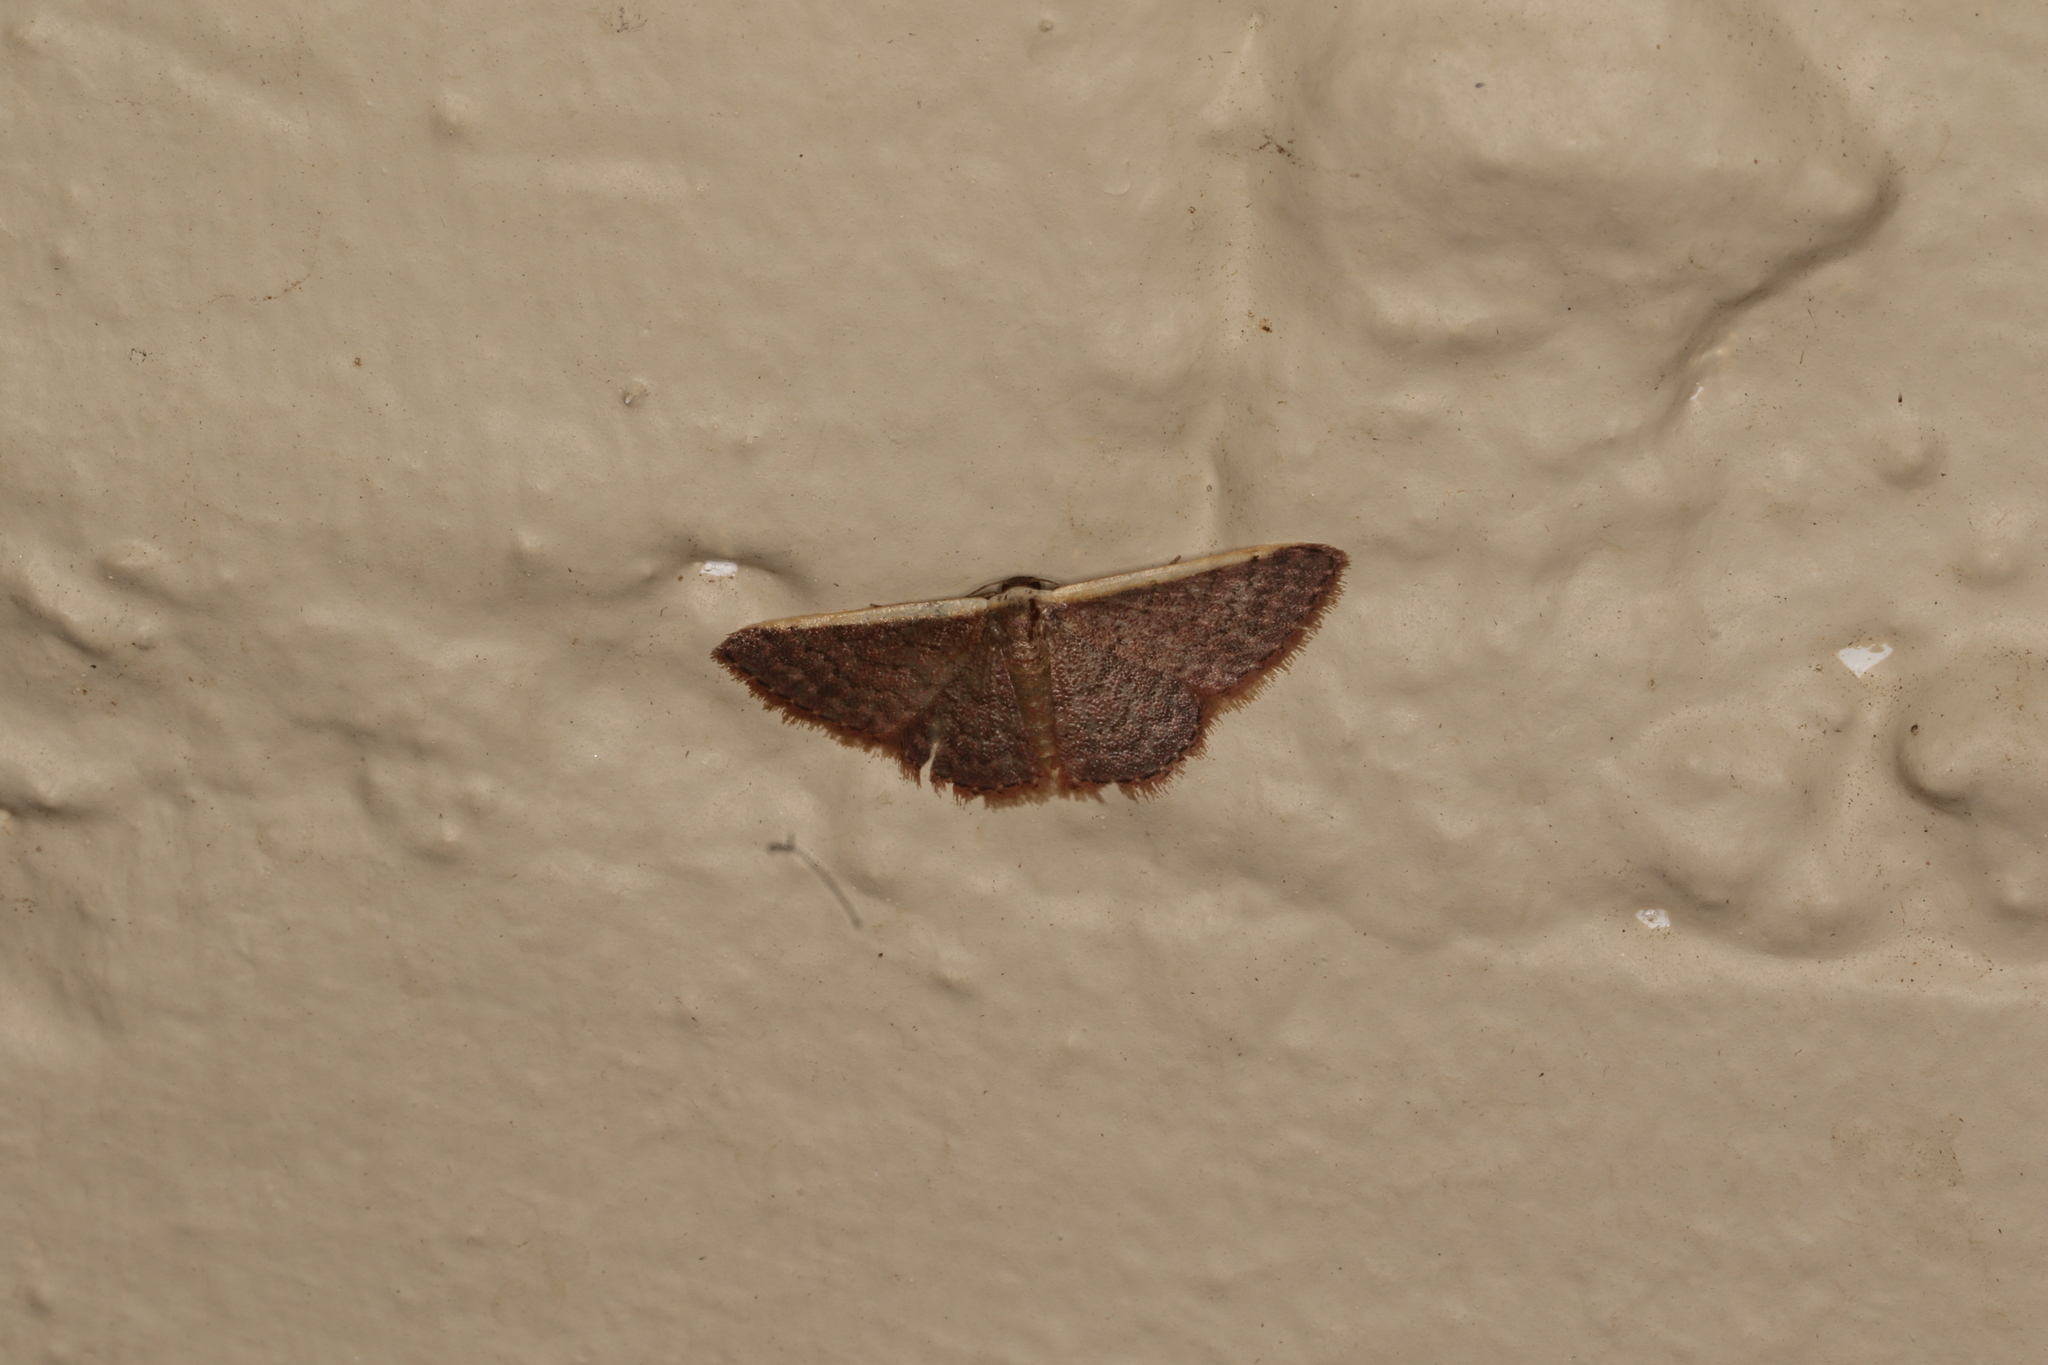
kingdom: Animalia
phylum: Arthropoda
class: Insecta
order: Lepidoptera
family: Geometridae
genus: Idaea
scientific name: Idaea inversata
